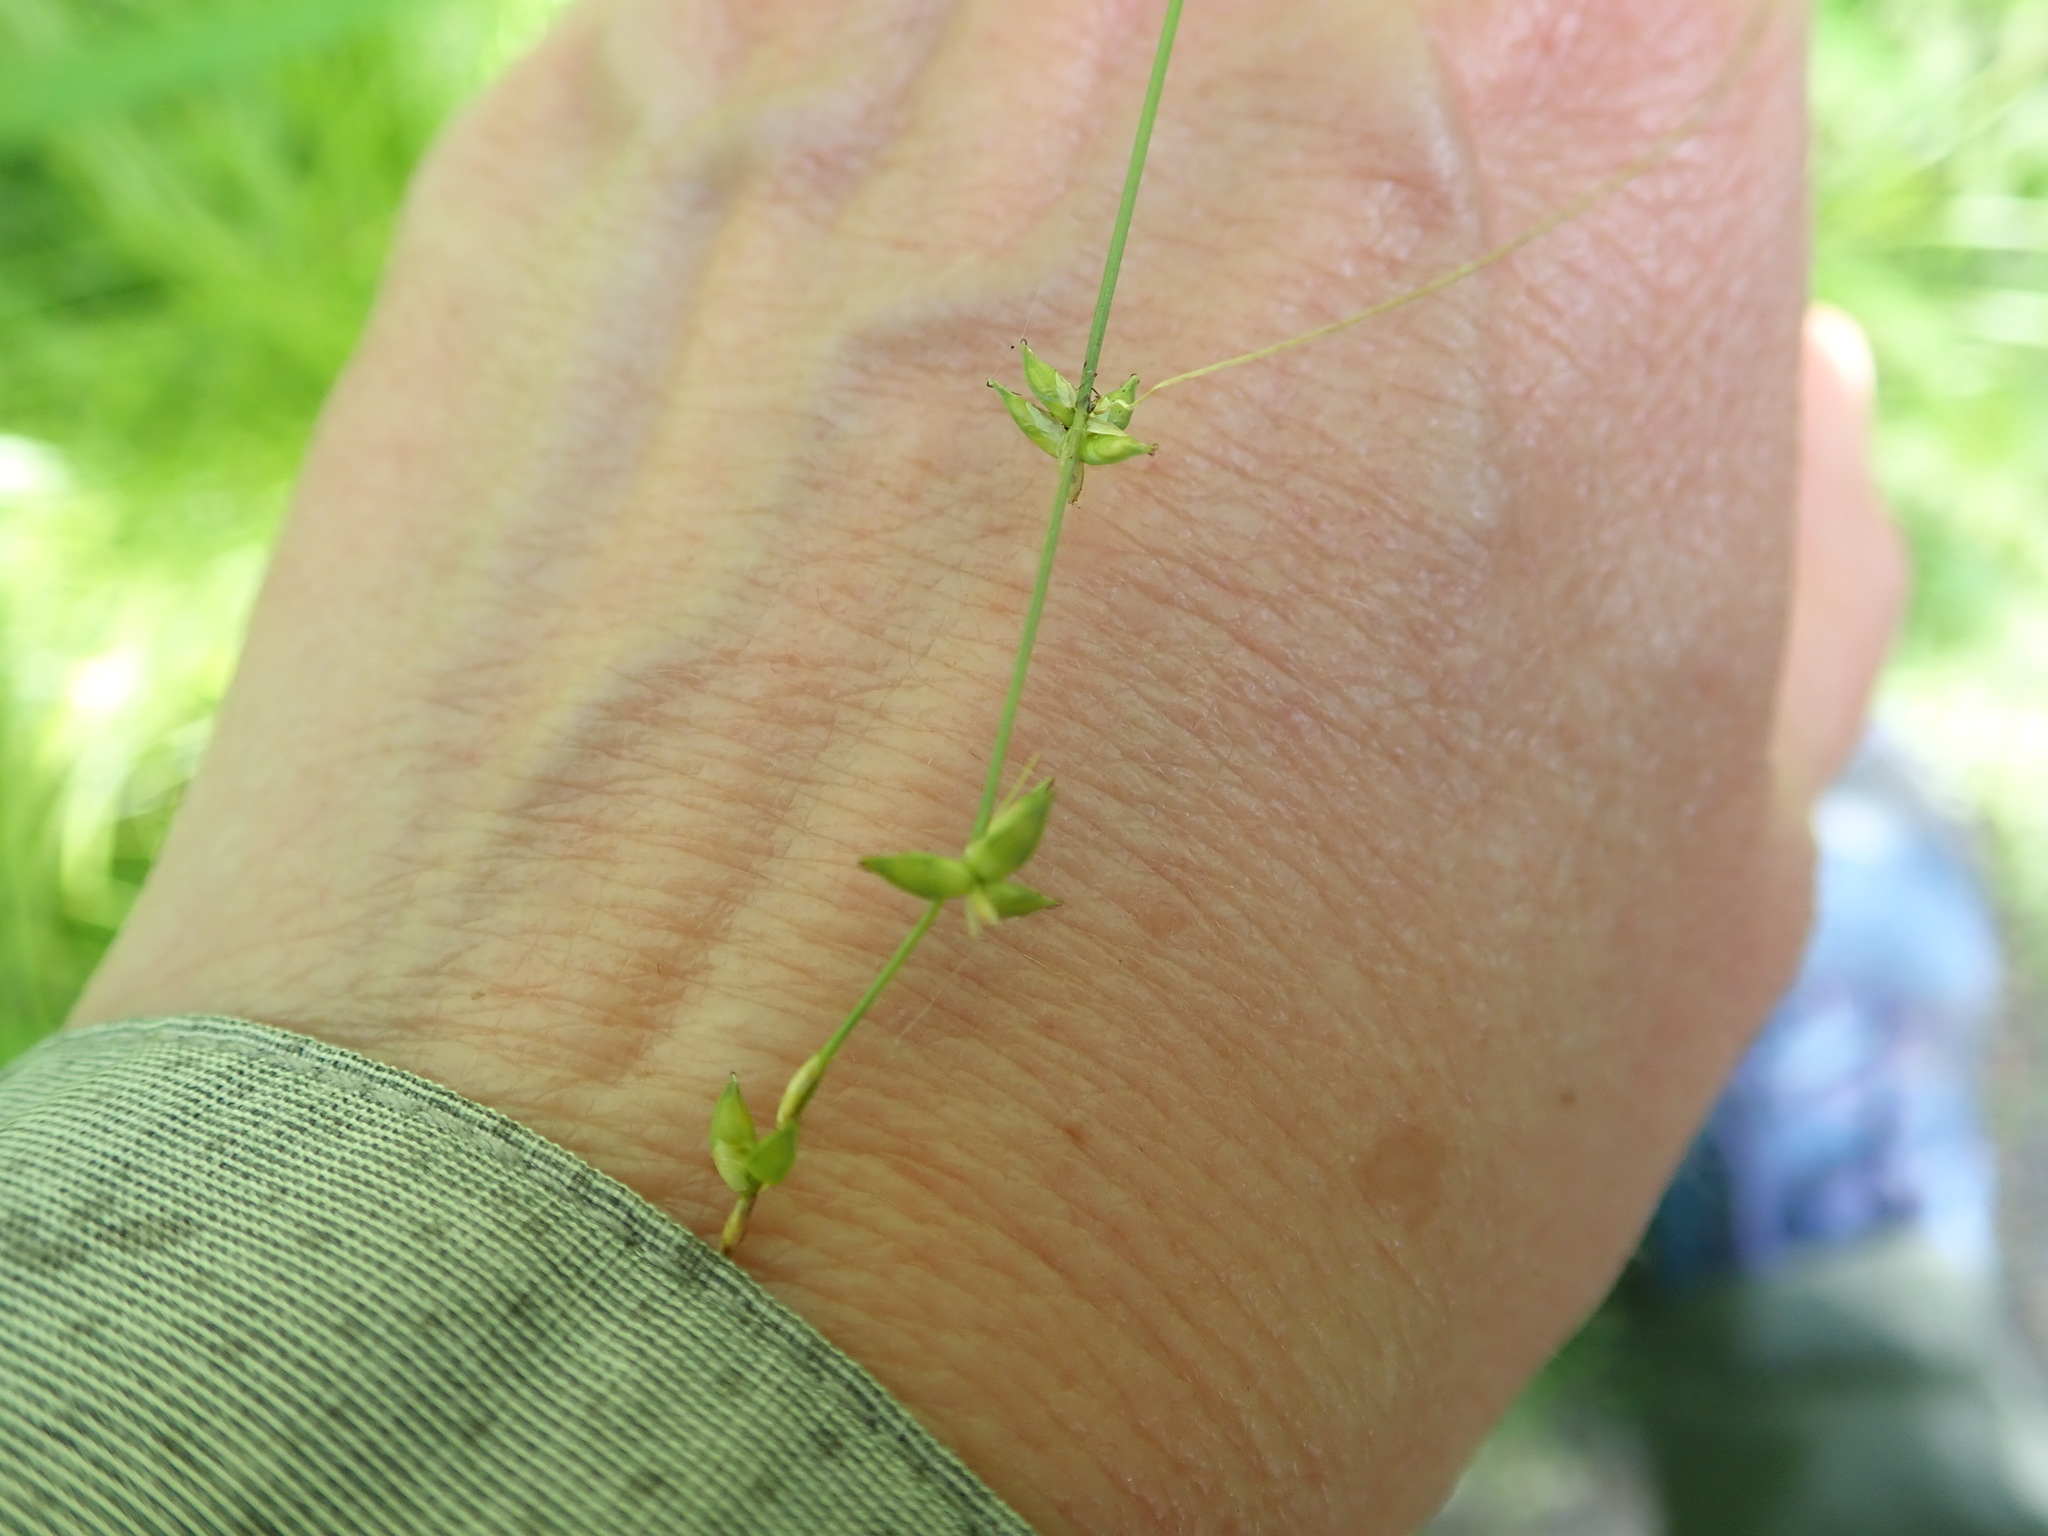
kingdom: Plantae
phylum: Tracheophyta
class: Liliopsida
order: Poales
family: Cyperaceae
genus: Carex
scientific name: Carex radiata
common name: Eastern star sedge
